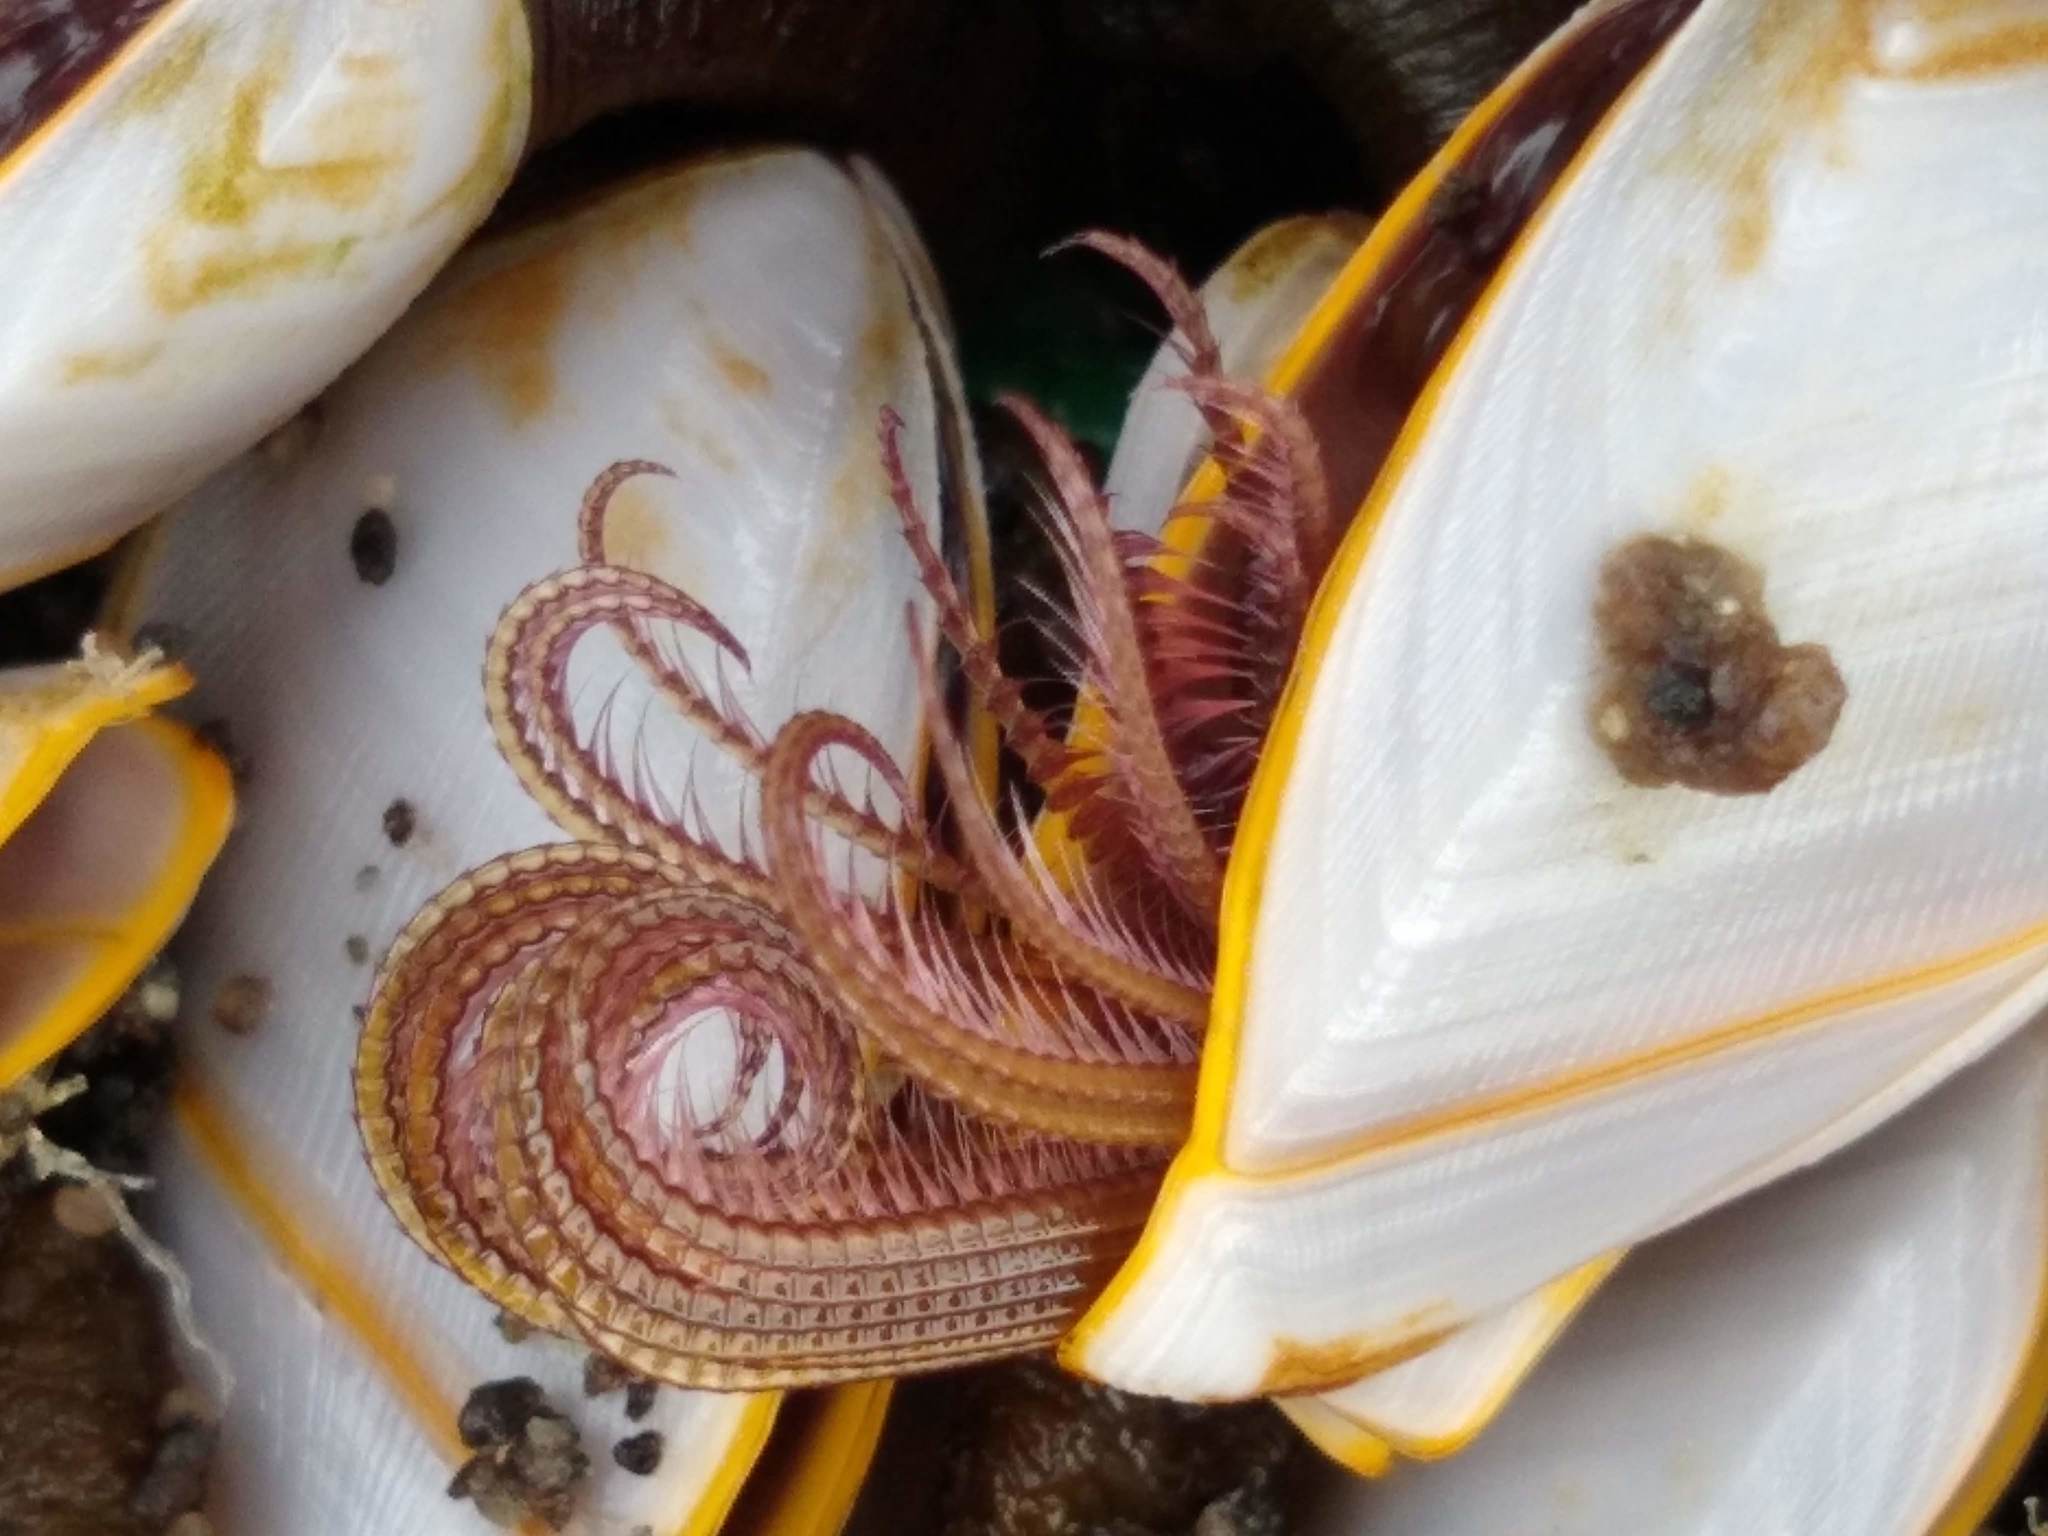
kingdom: Animalia
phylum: Arthropoda
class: Maxillopoda
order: Pedunculata
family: Lepadidae
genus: Lepas
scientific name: Lepas anatifera
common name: Common goose barnacle
